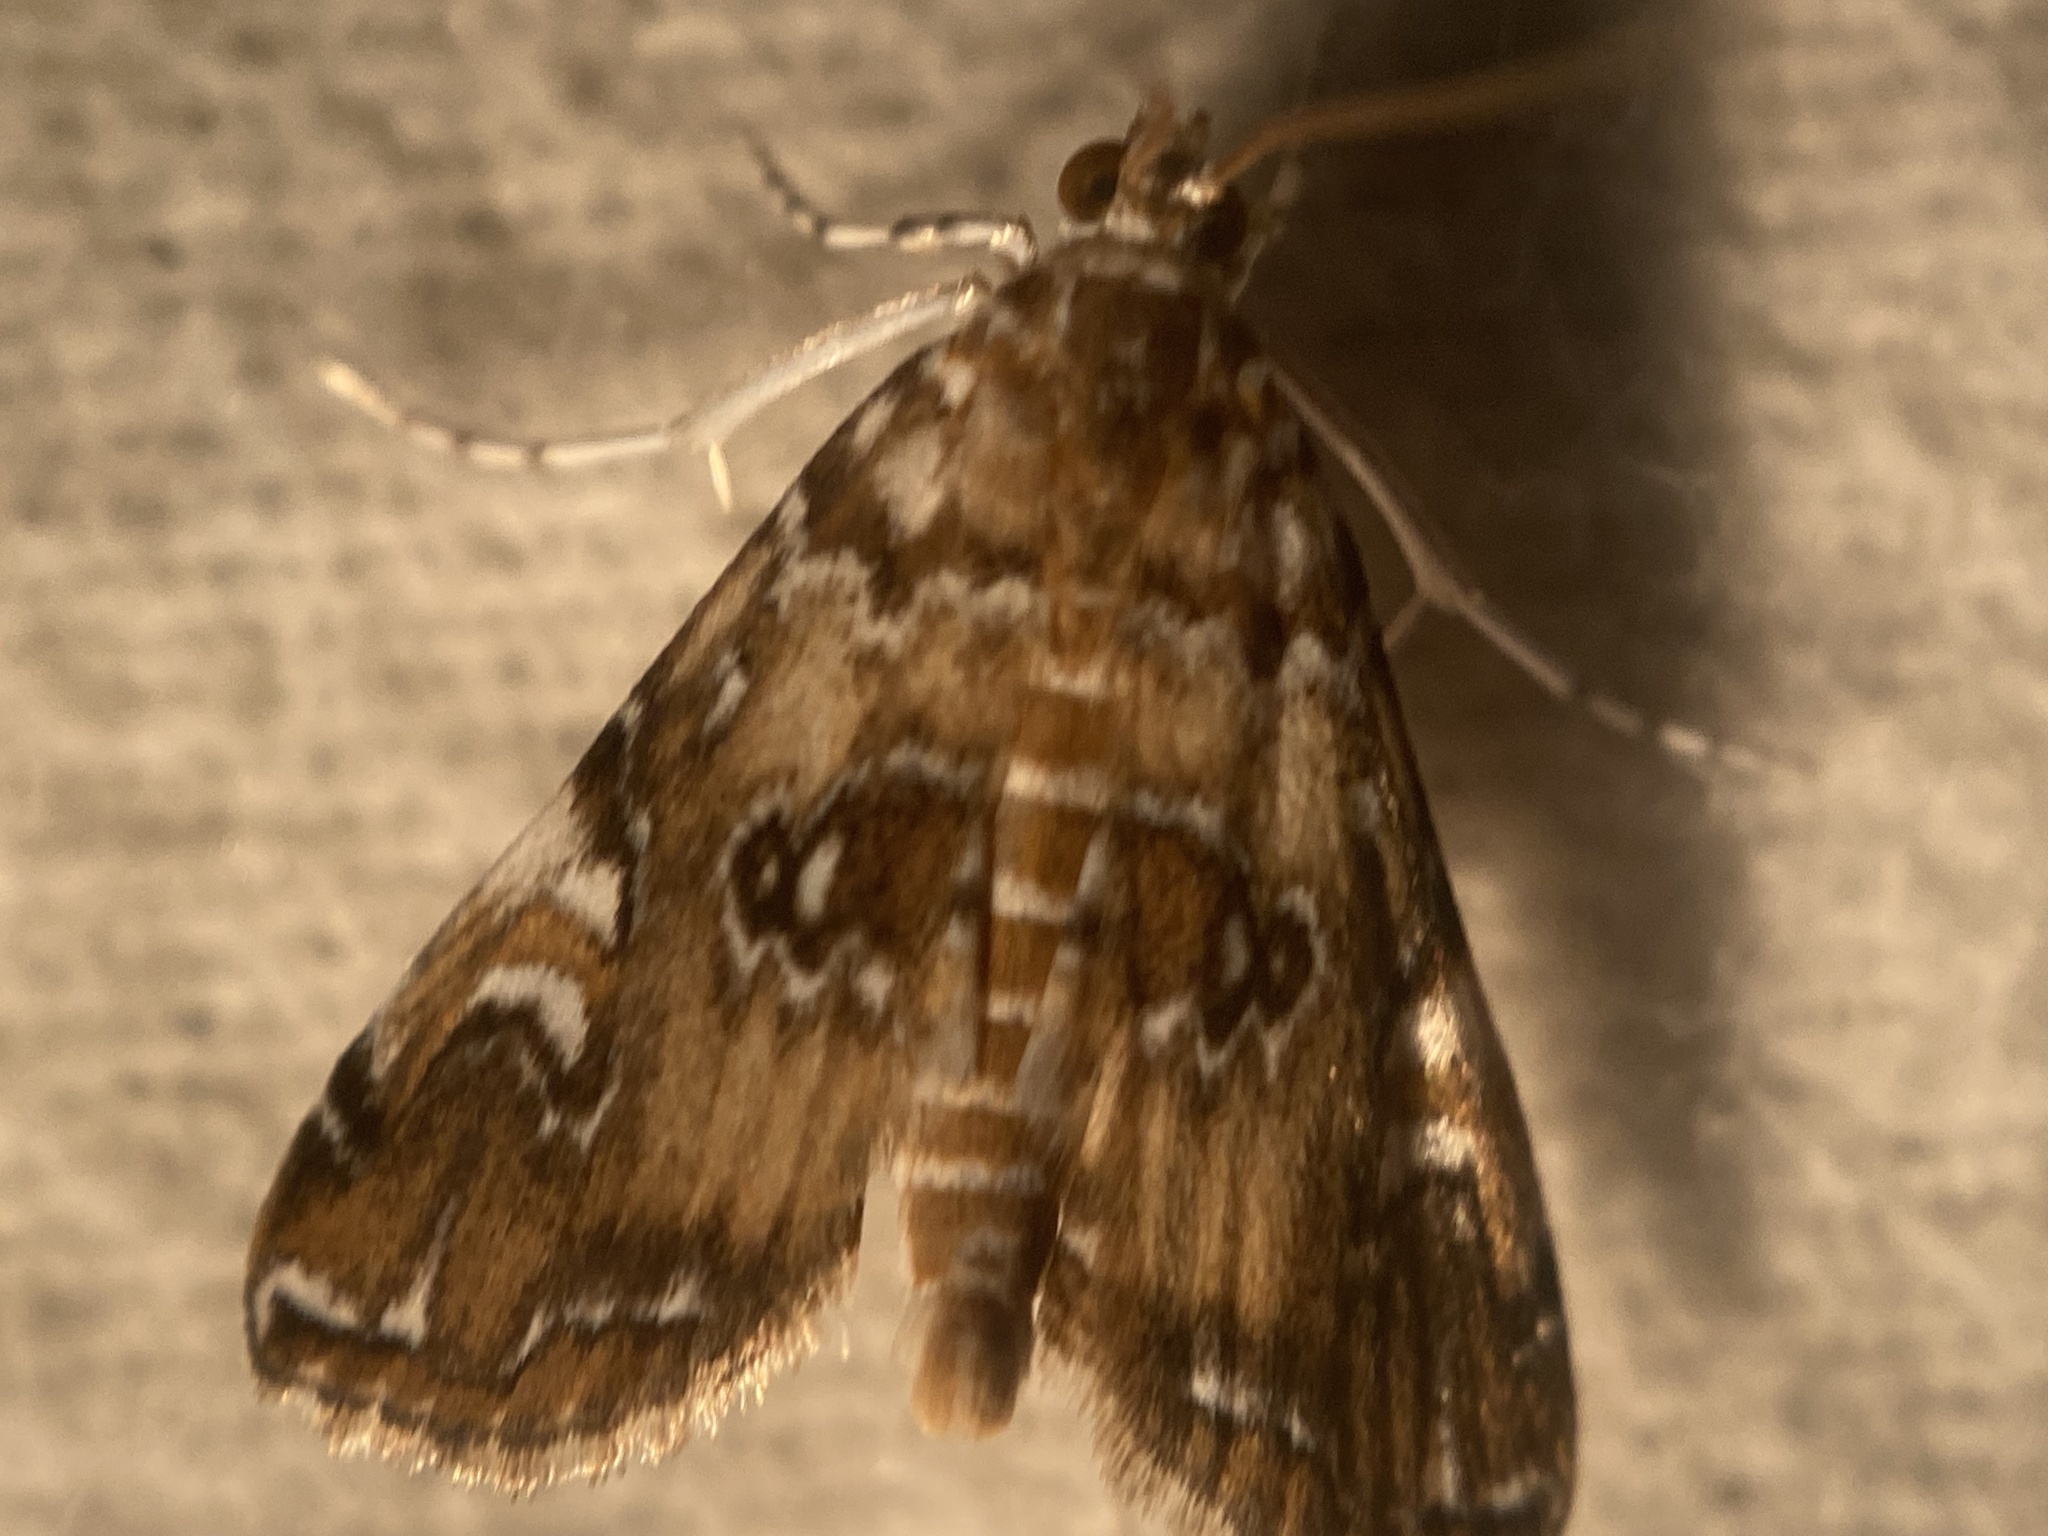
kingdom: Animalia
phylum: Arthropoda
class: Insecta
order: Lepidoptera
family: Crambidae
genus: Elophila
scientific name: Elophila gyralis
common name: Waterlily borer moth
